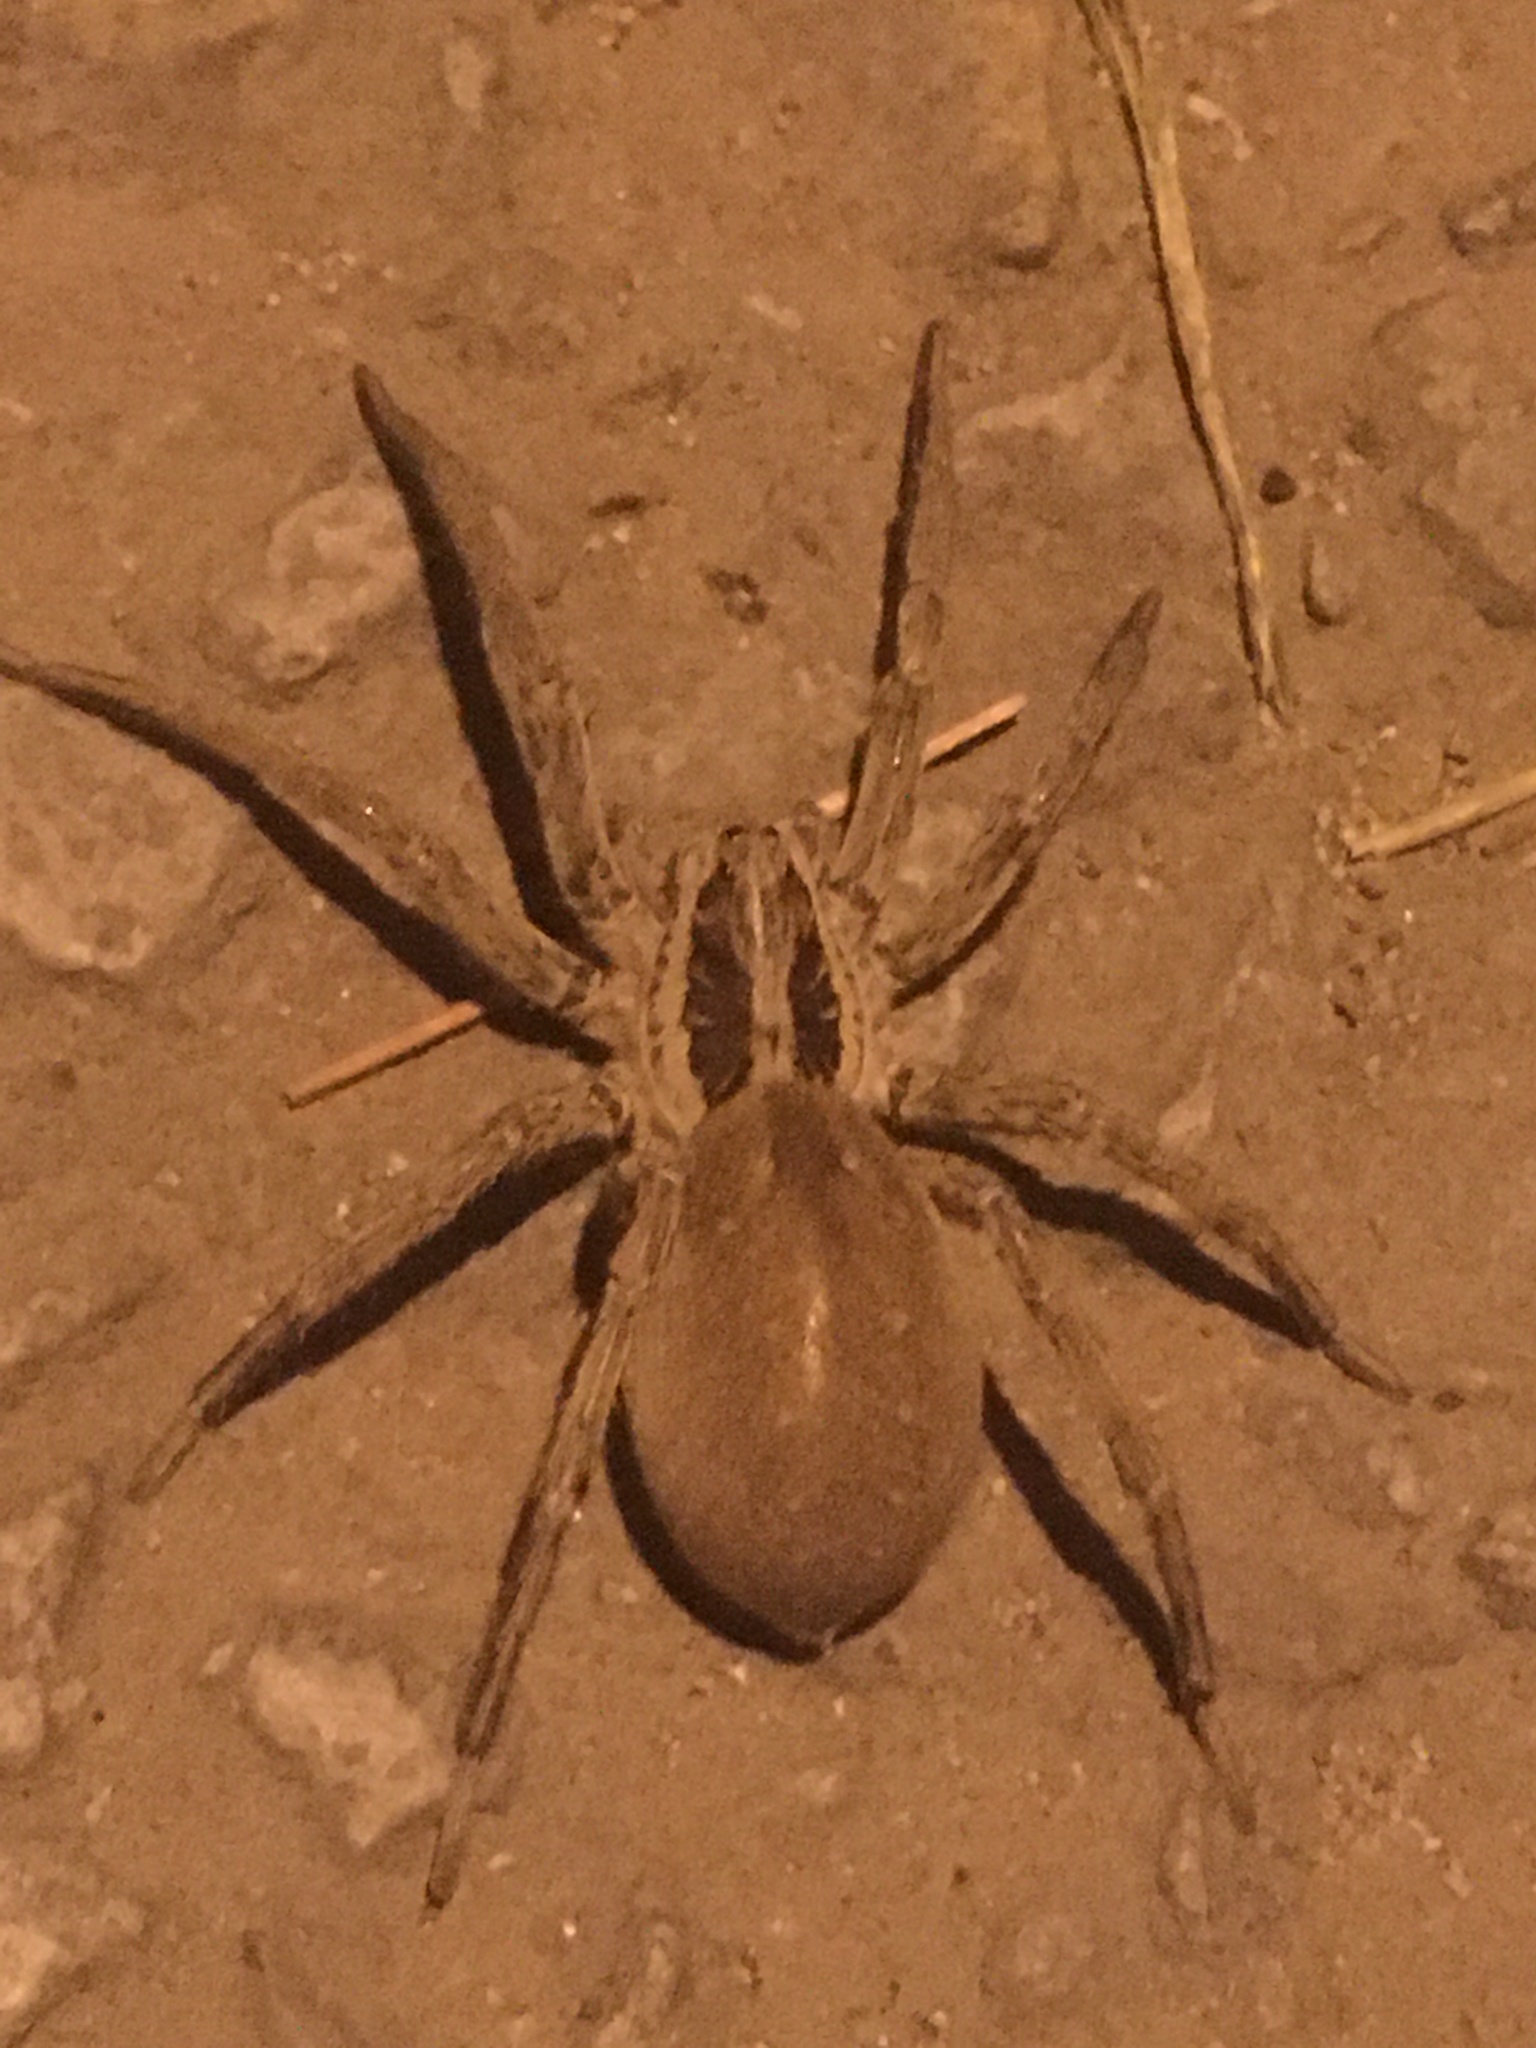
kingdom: Animalia
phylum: Arthropoda
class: Arachnida
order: Araneae
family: Lycosidae
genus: Hogna
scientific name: Hogna radiata
